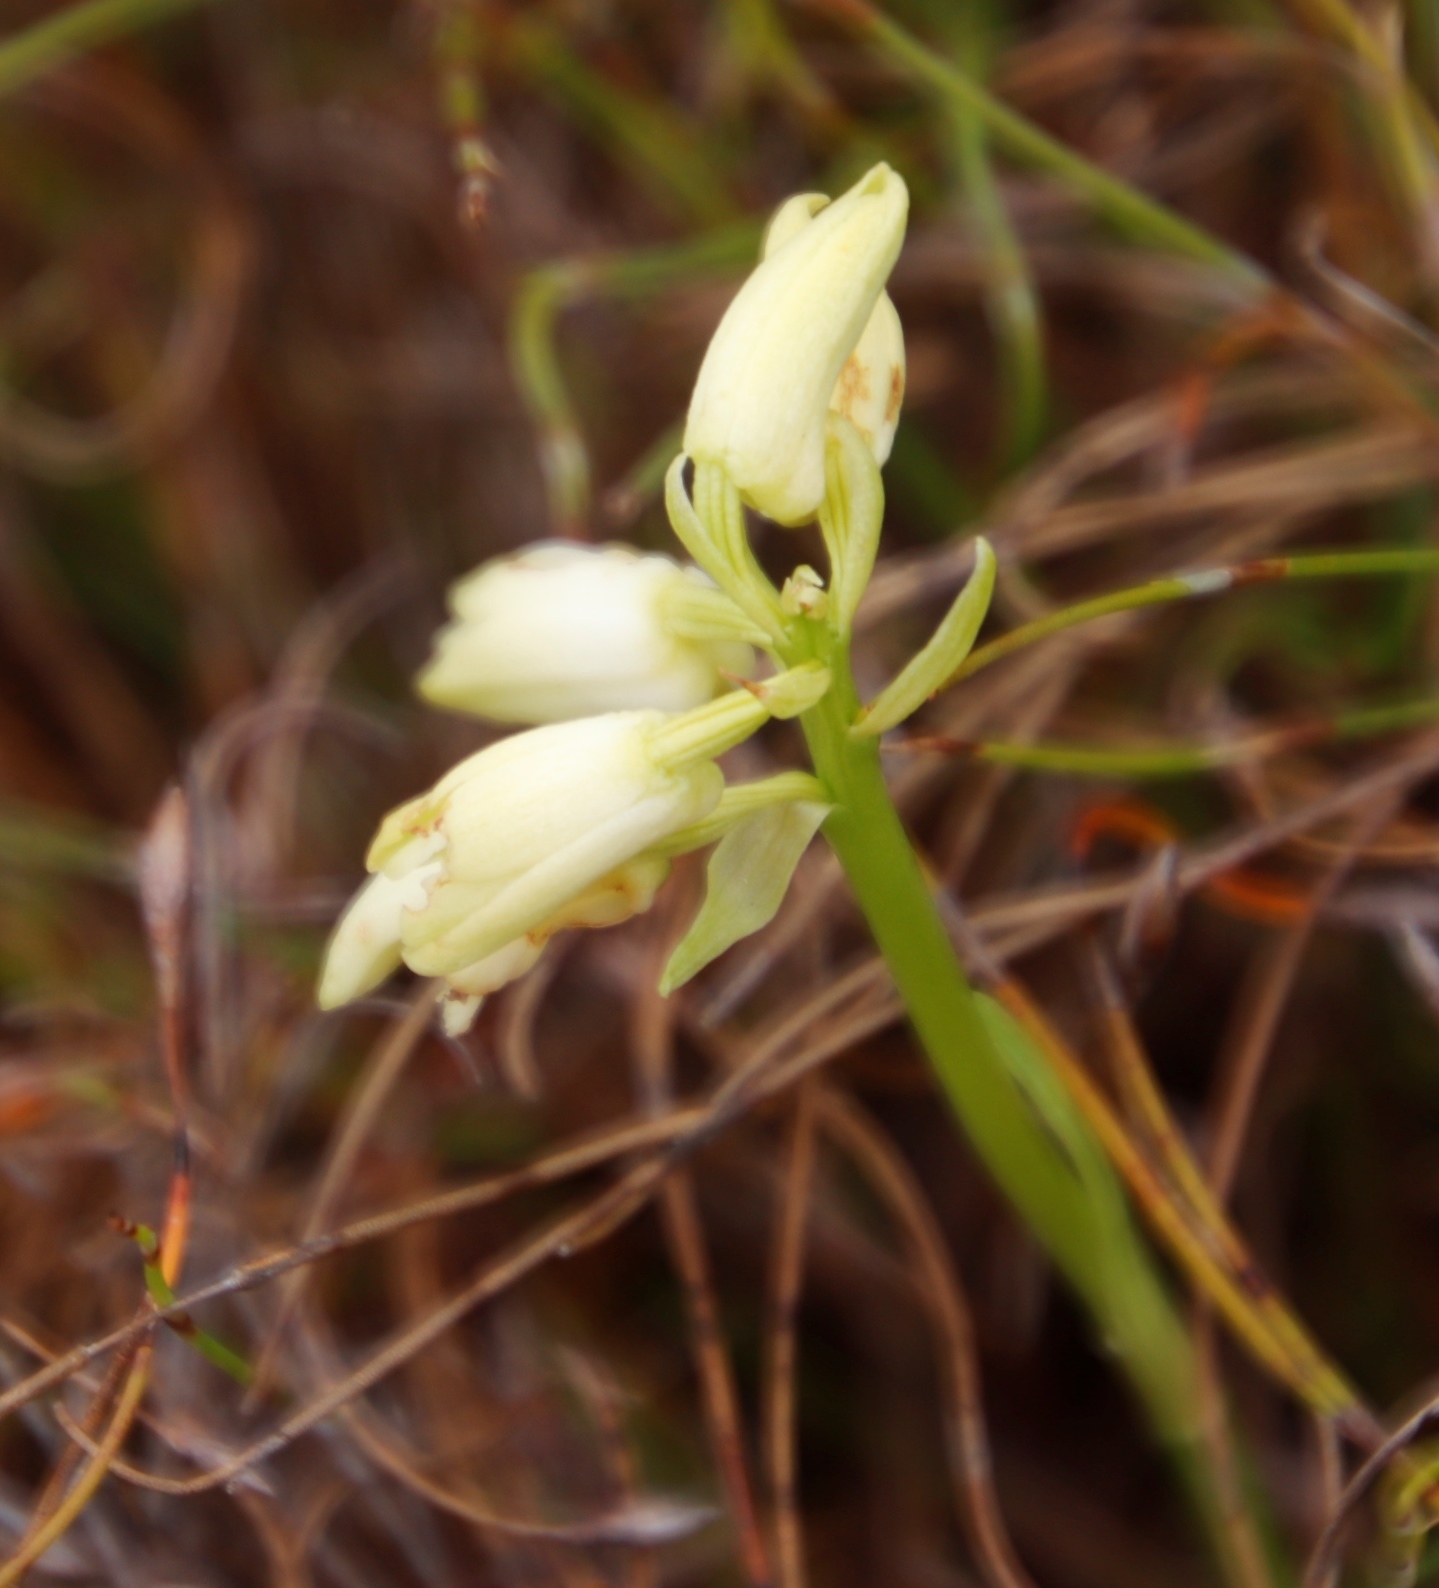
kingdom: Plantae
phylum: Tracheophyta
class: Liliopsida
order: Asparagales
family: Orchidaceae
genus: Eulophia
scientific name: Eulophia aculeata
